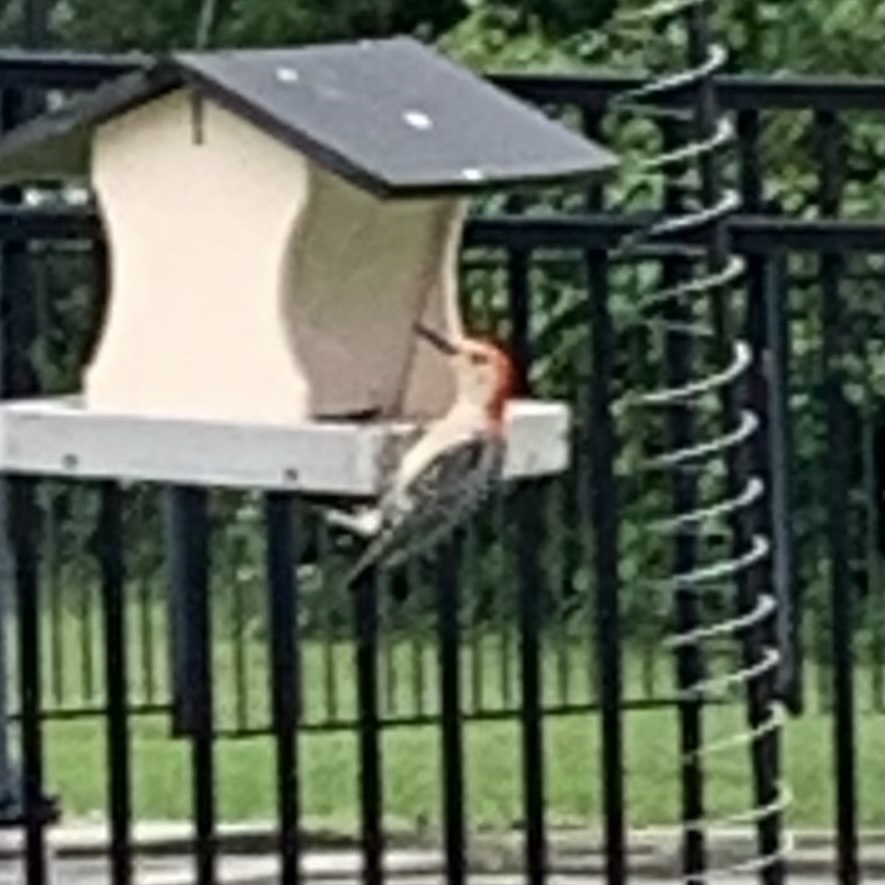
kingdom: Animalia
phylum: Chordata
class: Aves
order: Piciformes
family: Picidae
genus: Melanerpes
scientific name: Melanerpes carolinus
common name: Red-bellied woodpecker
